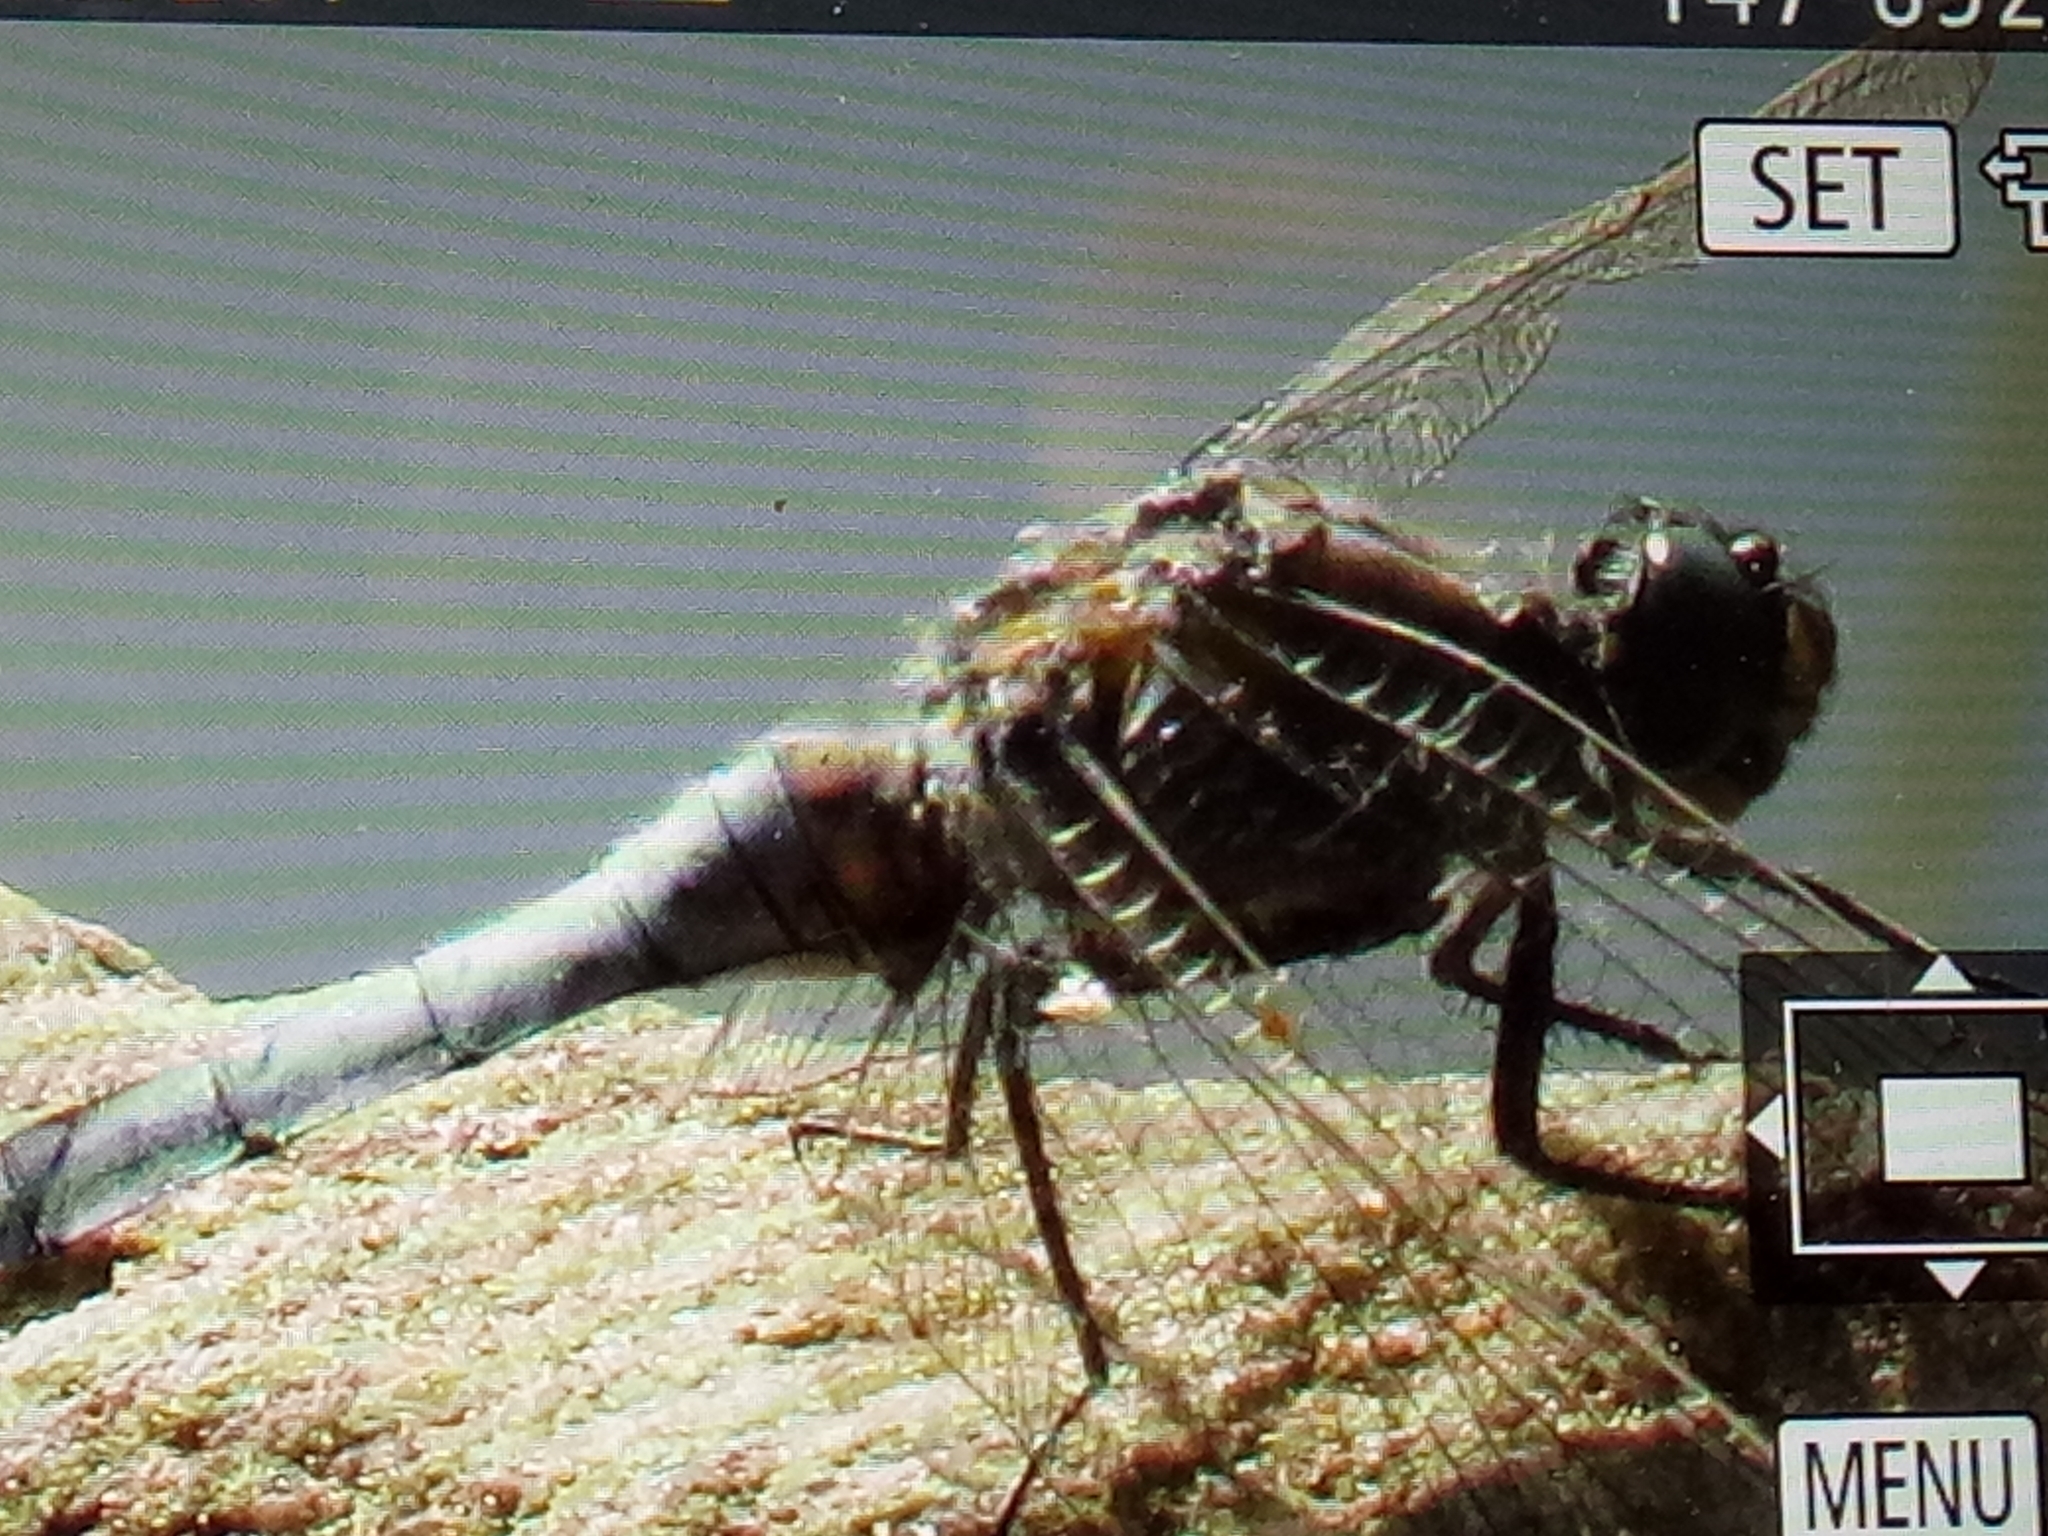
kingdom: Animalia
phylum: Arthropoda
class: Insecta
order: Odonata
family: Libellulidae
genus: Orthetrum
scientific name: Orthetrum cancellatum
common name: Black-tailed skimmer
